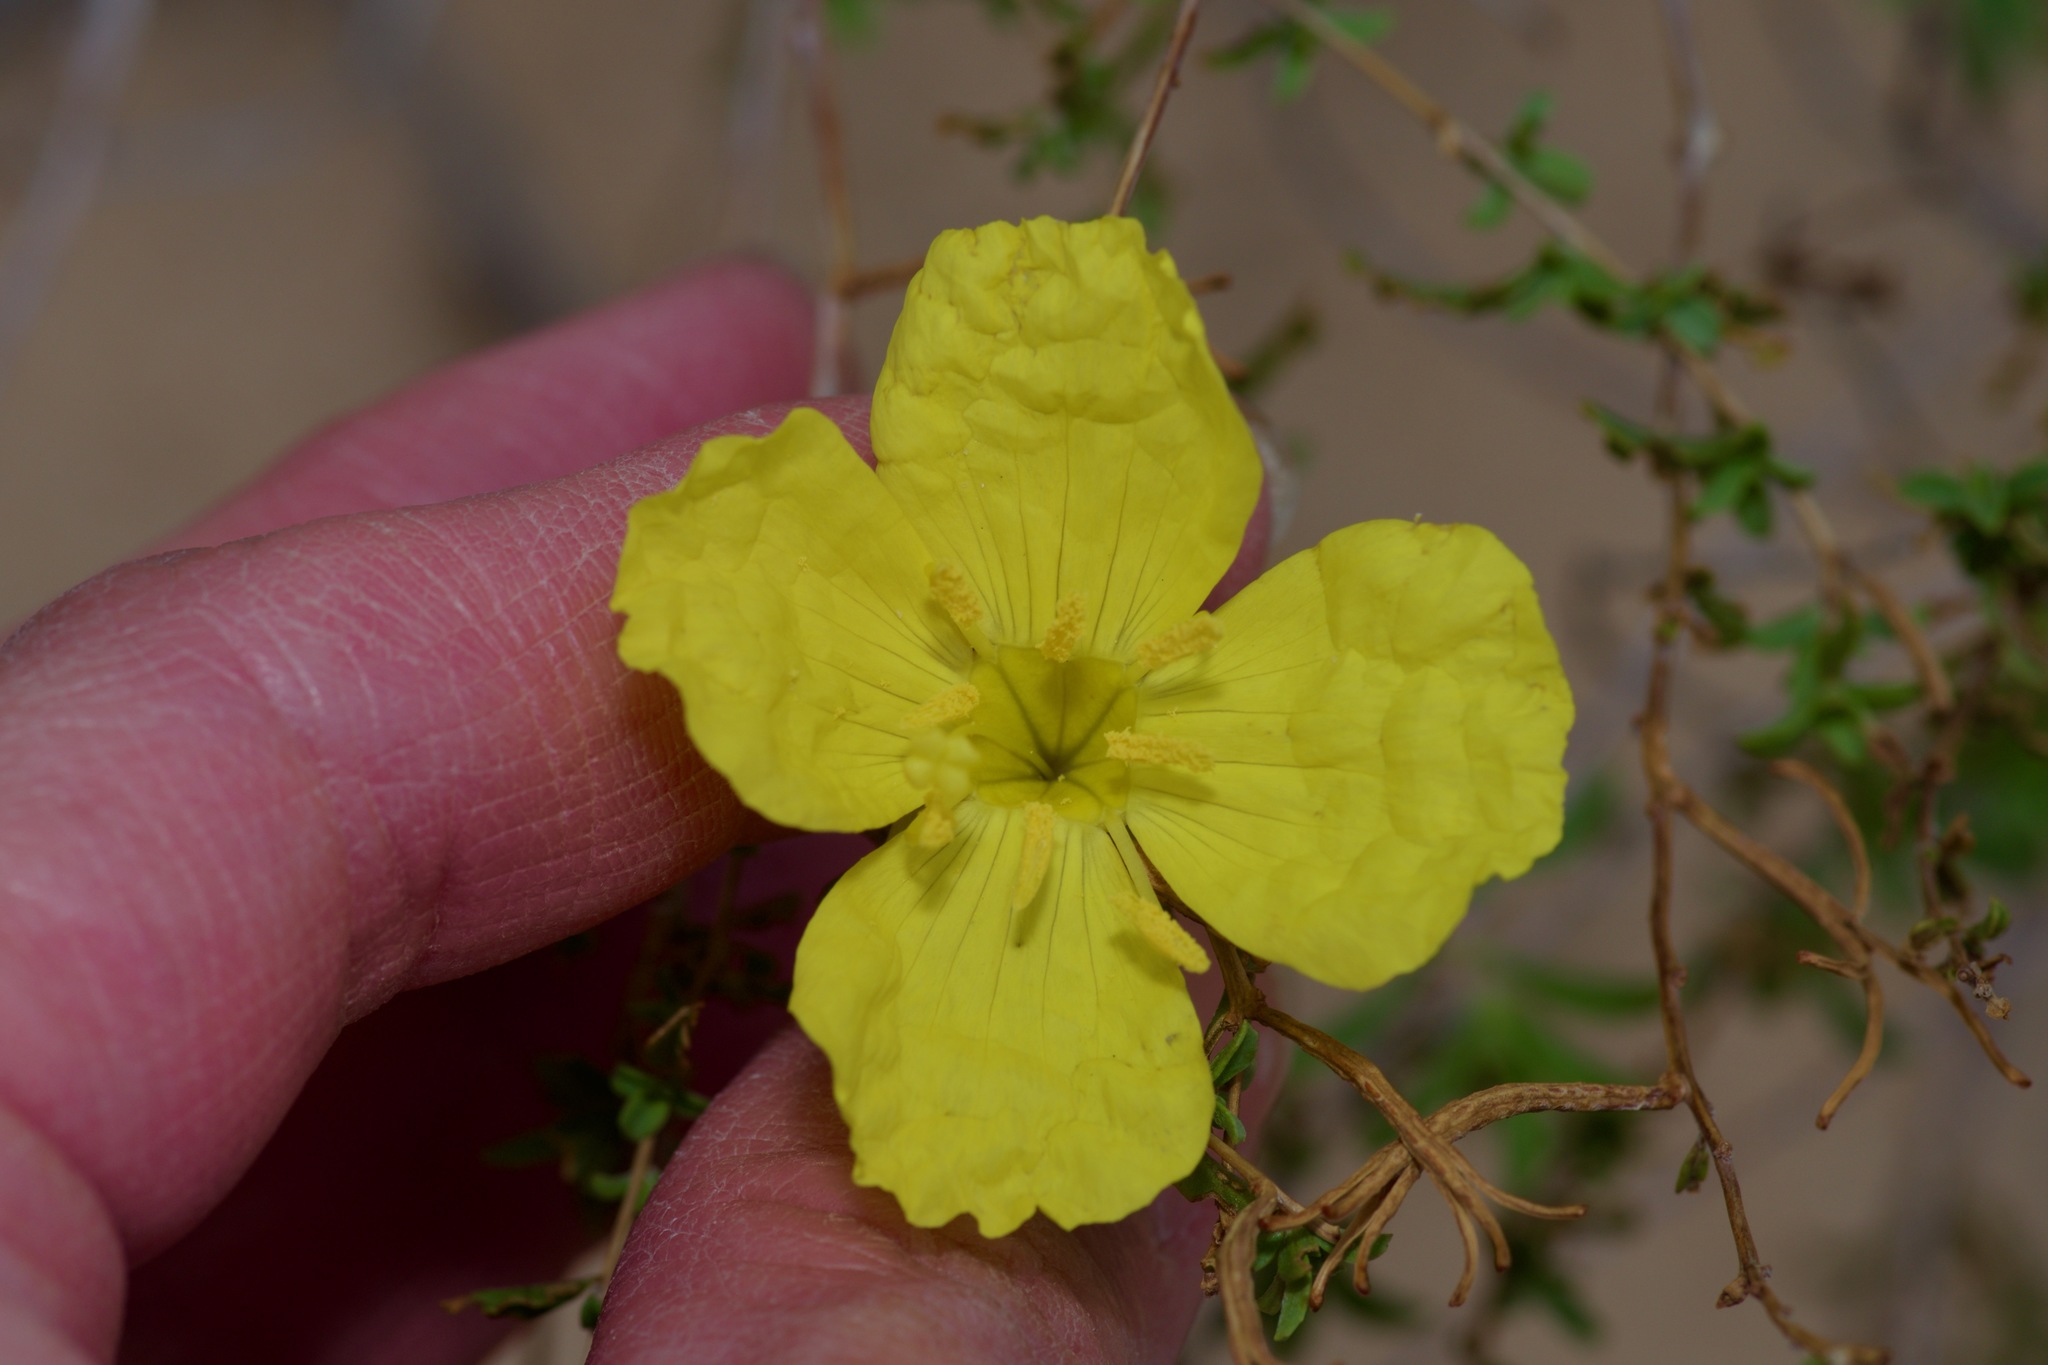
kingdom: Plantae
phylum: Tracheophyta
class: Magnoliopsida
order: Myrtales
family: Onagraceae
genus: Oenothera
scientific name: Oenothera
